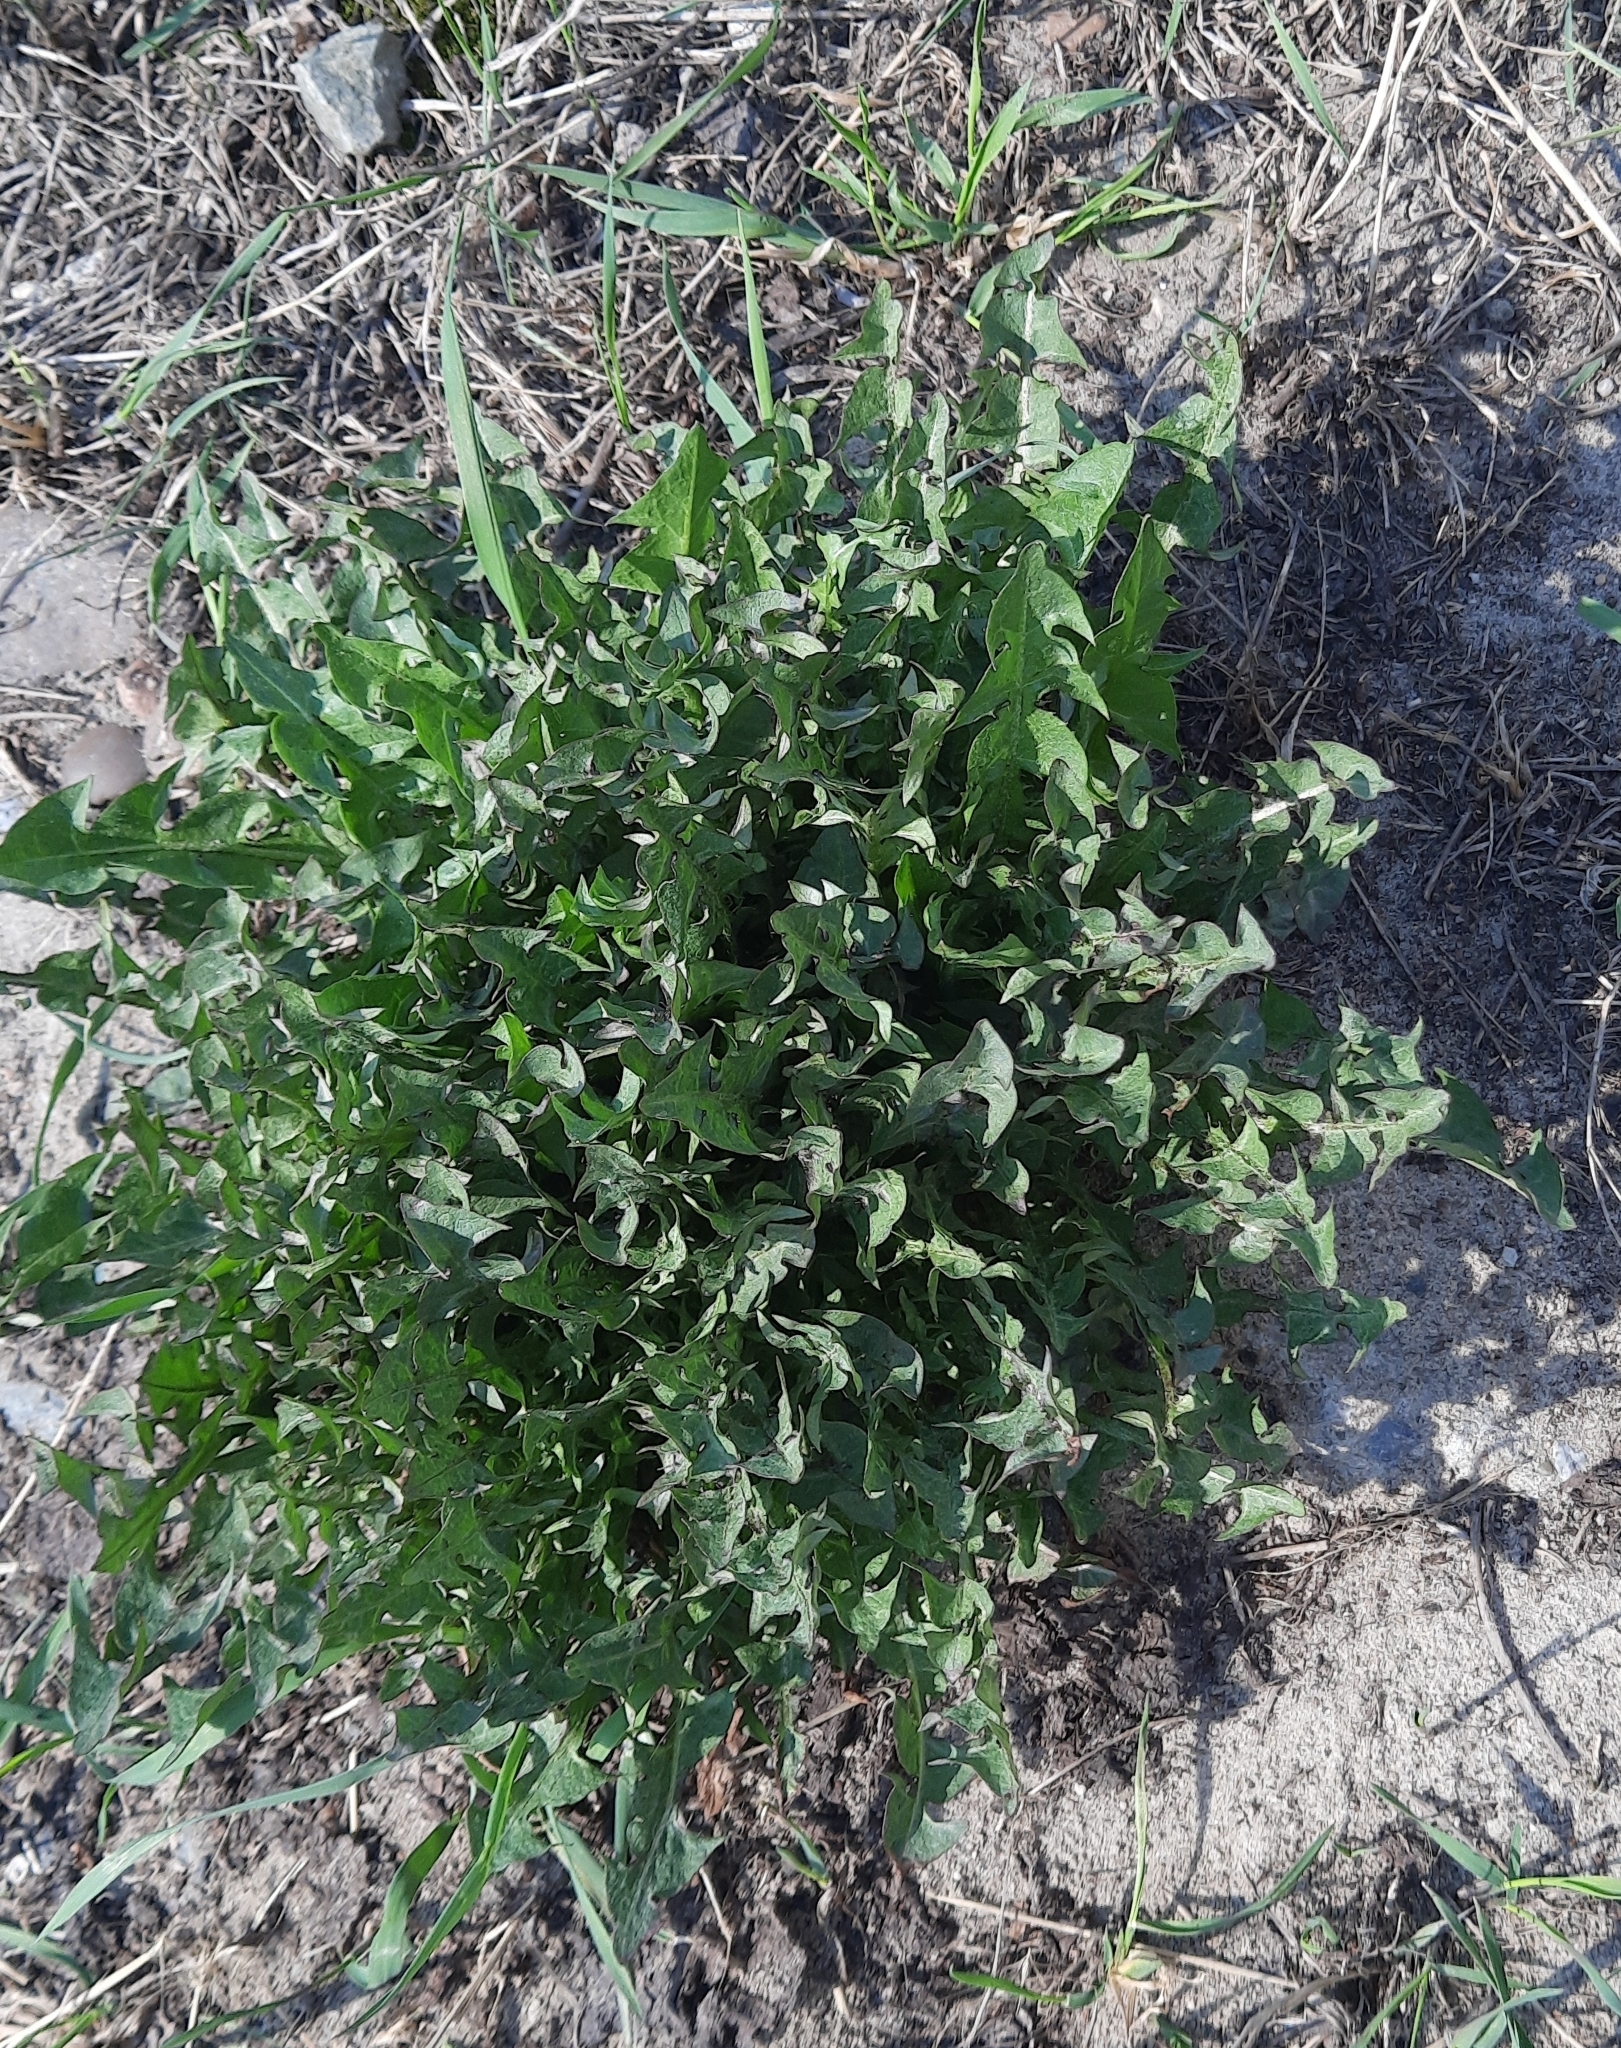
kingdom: Plantae
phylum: Tracheophyta
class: Magnoliopsida
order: Asterales
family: Asteraceae
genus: Taraxacum
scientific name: Taraxacum officinale
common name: Common dandelion
